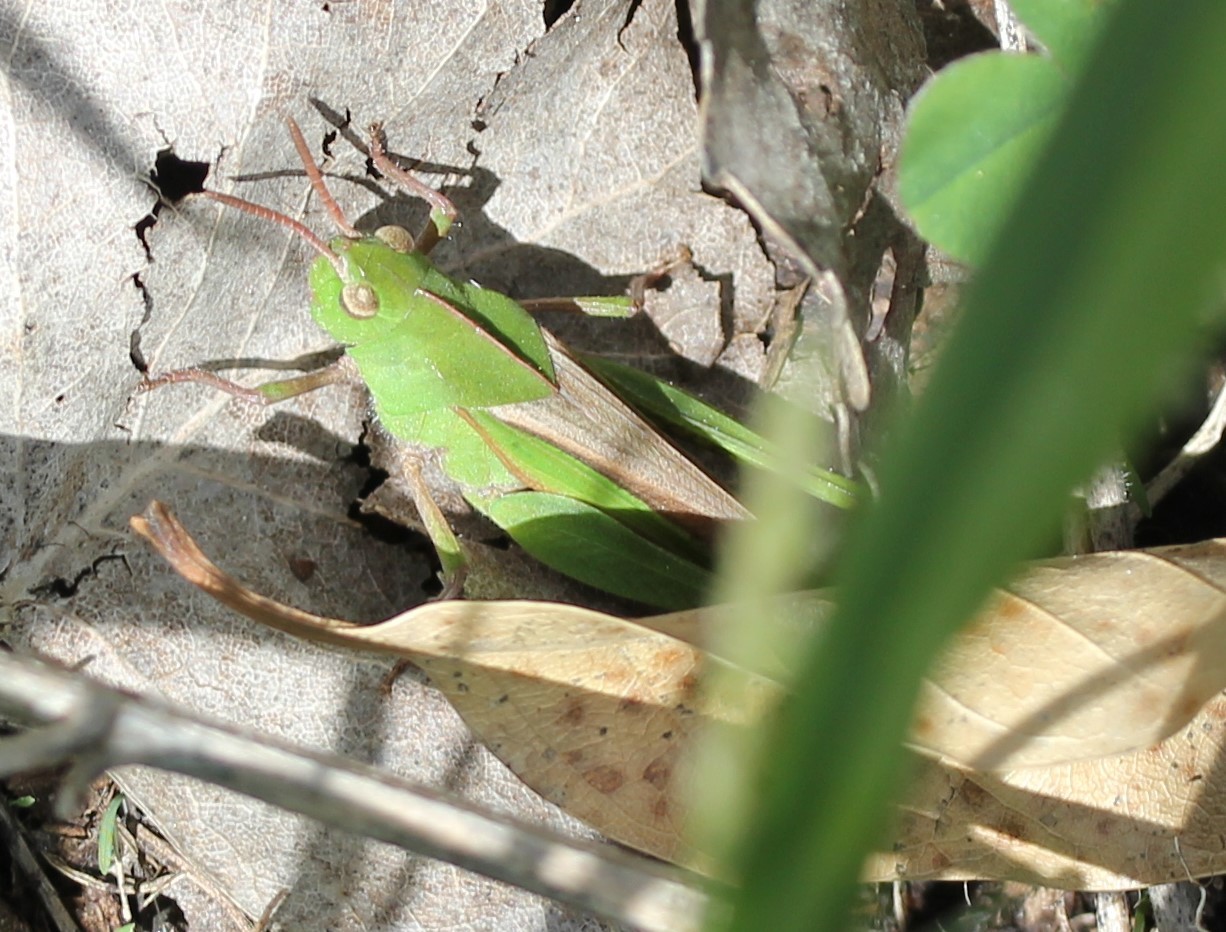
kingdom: Animalia
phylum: Arthropoda
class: Insecta
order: Orthoptera
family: Acrididae
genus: Chortophaga
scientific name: Chortophaga viridifasciata
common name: Green-striped grasshopper
